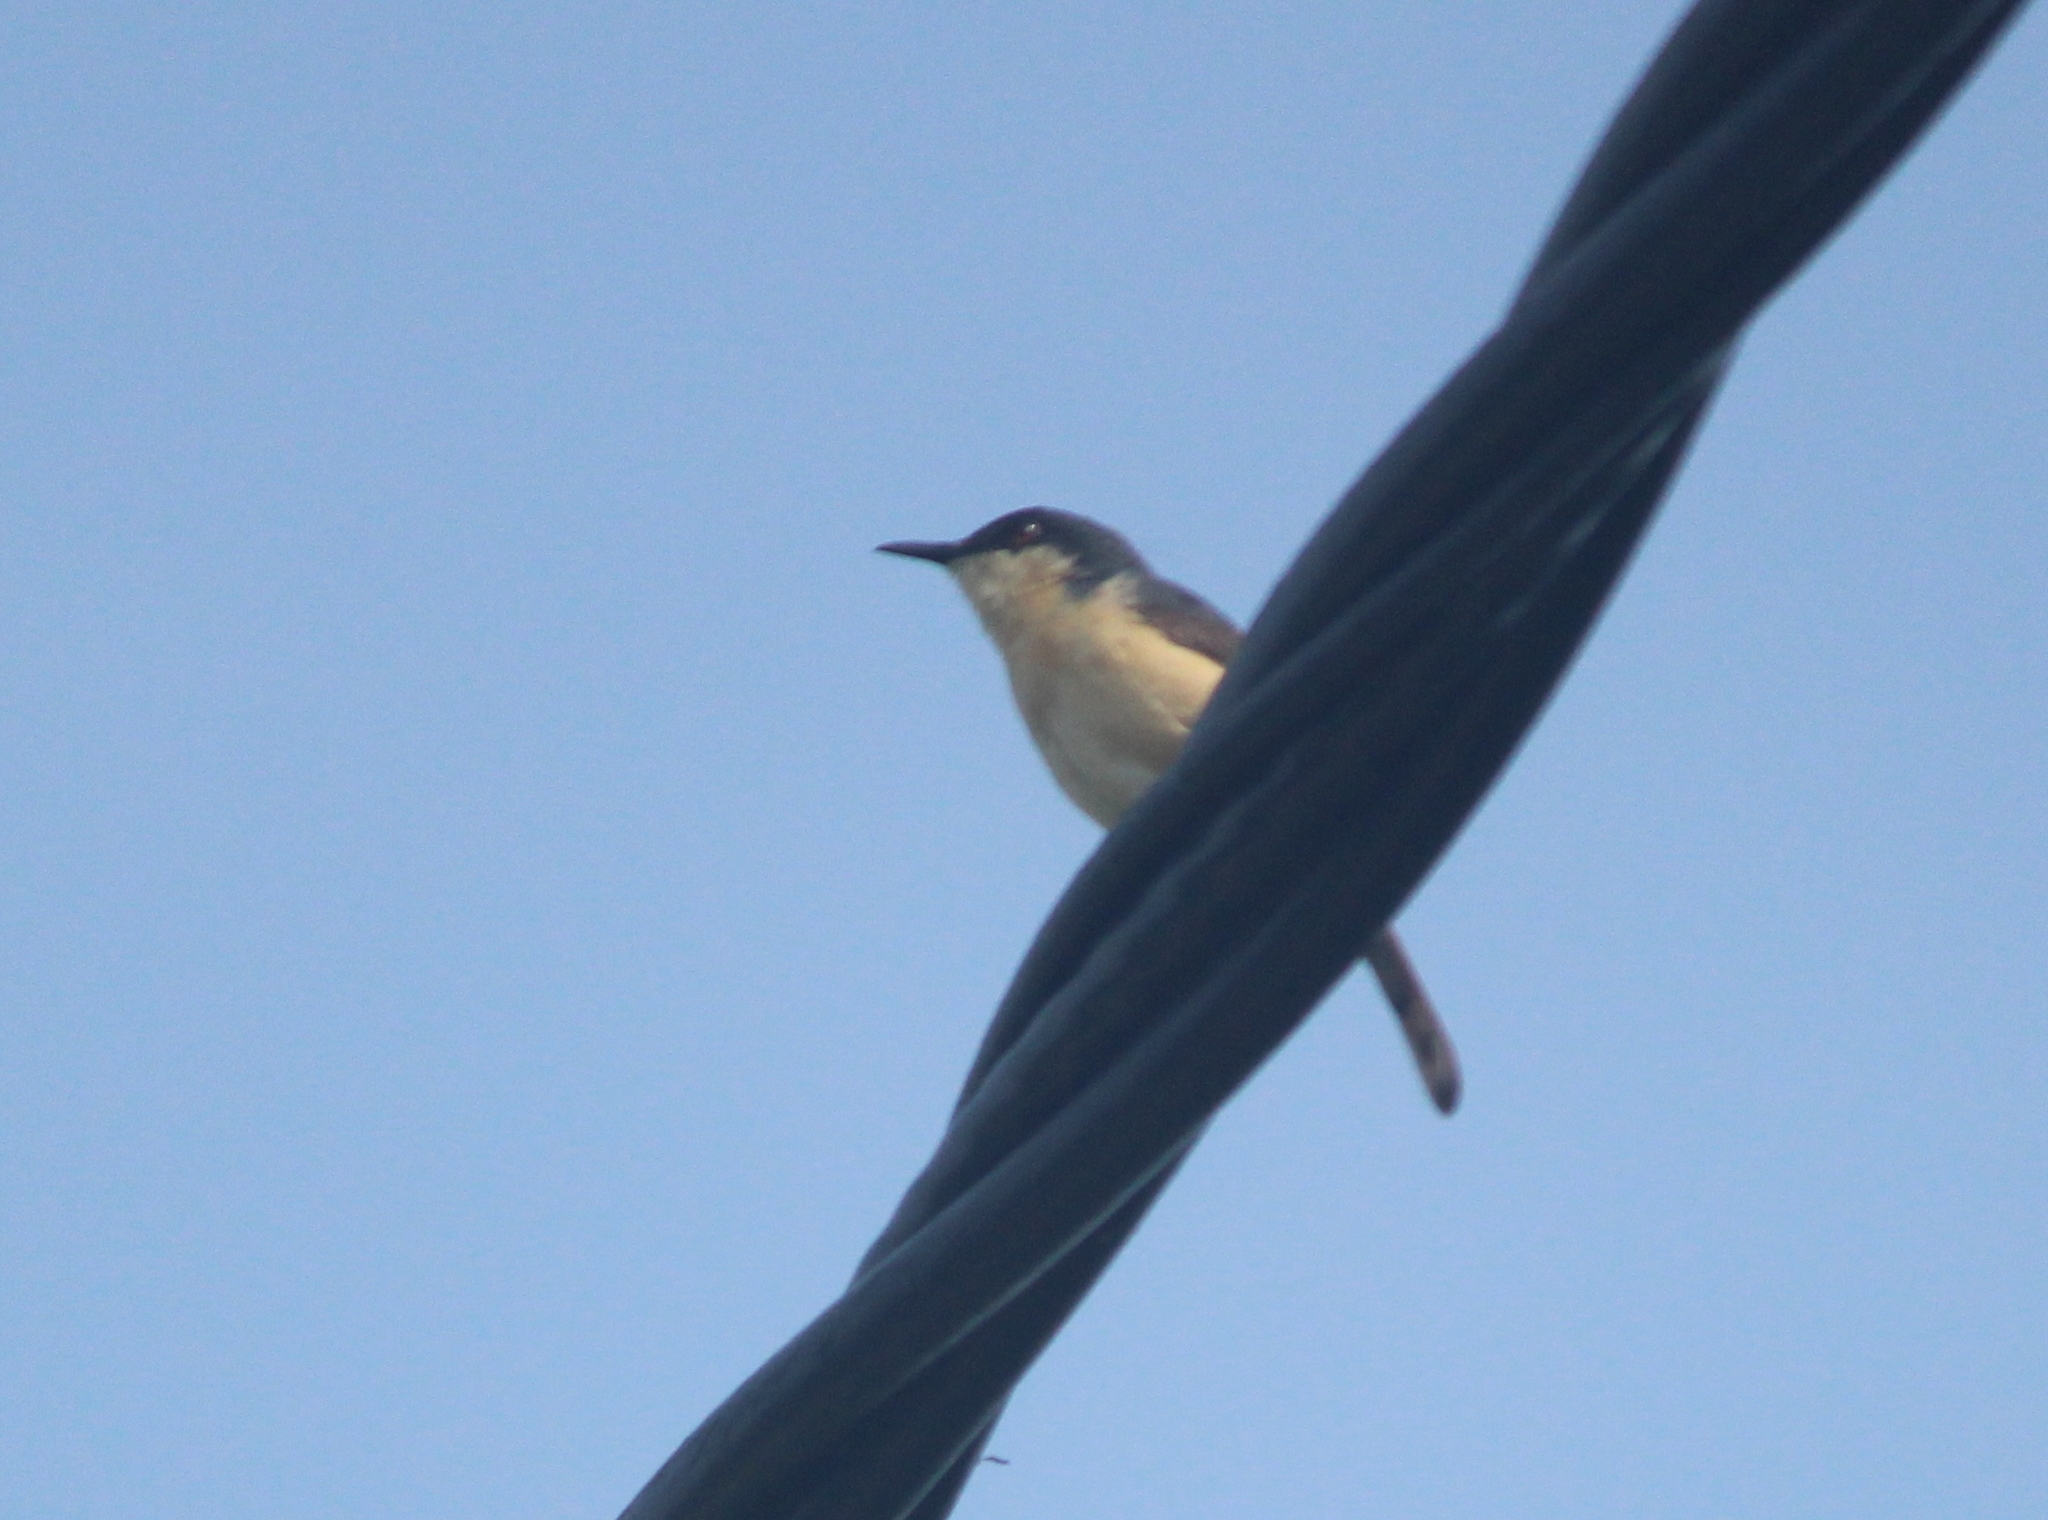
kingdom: Animalia
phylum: Chordata
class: Aves
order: Passeriformes
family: Cisticolidae
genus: Prinia
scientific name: Prinia socialis
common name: Ashy prinia
